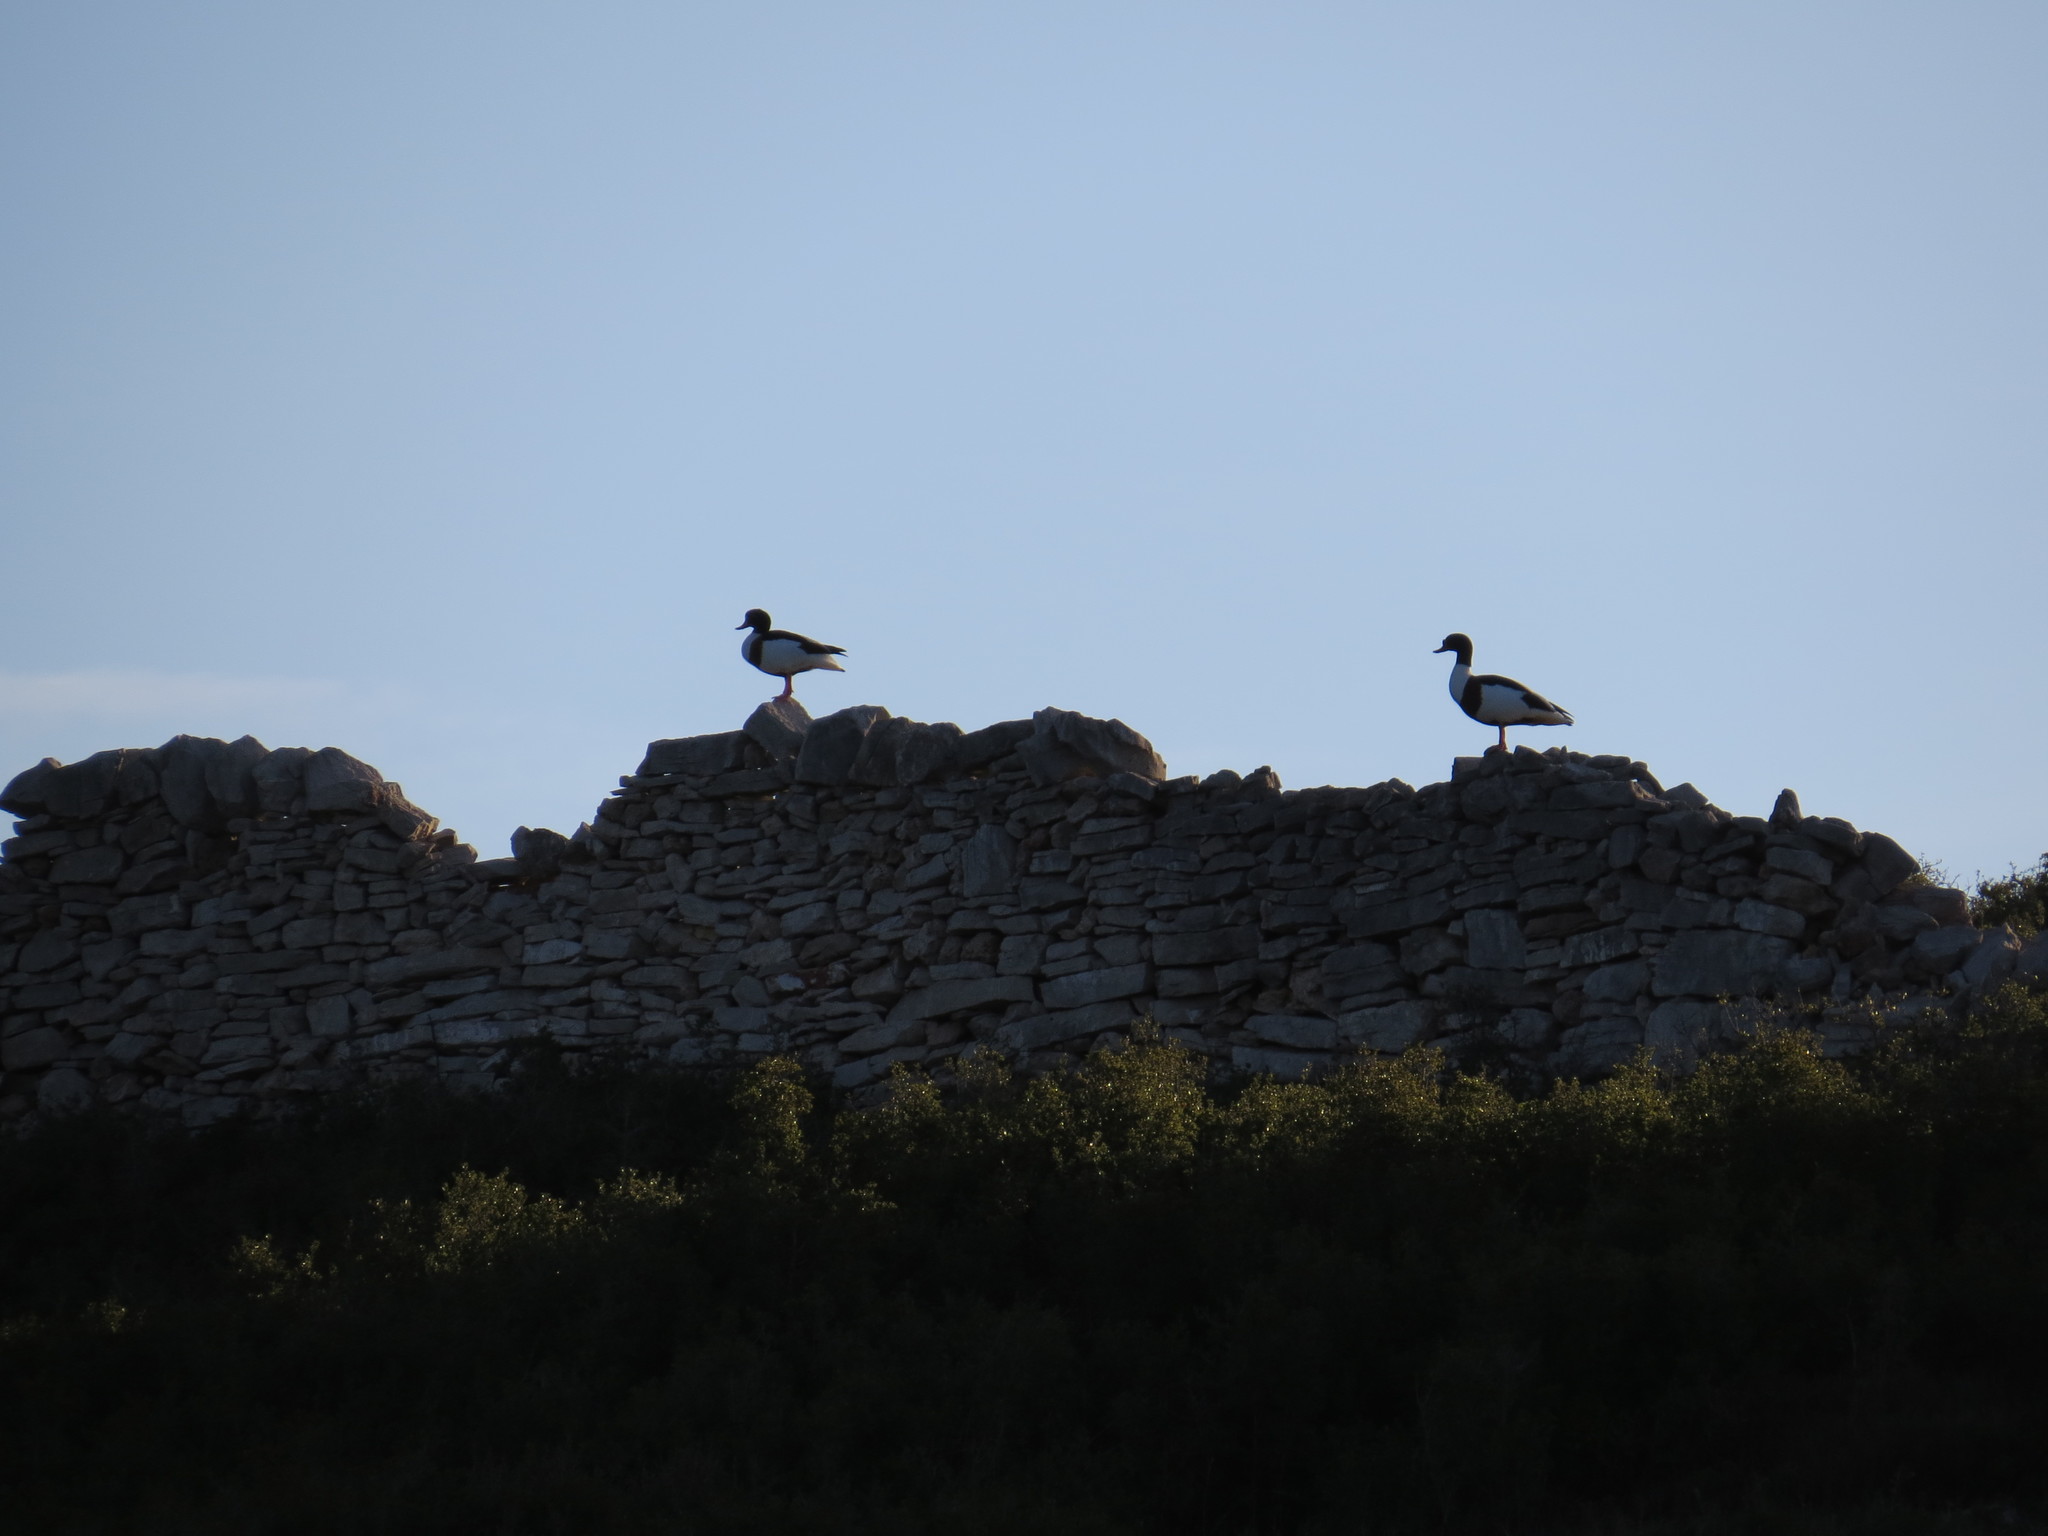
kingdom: Animalia
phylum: Chordata
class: Aves
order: Anseriformes
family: Anatidae
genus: Tadorna
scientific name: Tadorna tadorna
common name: Common shelduck
